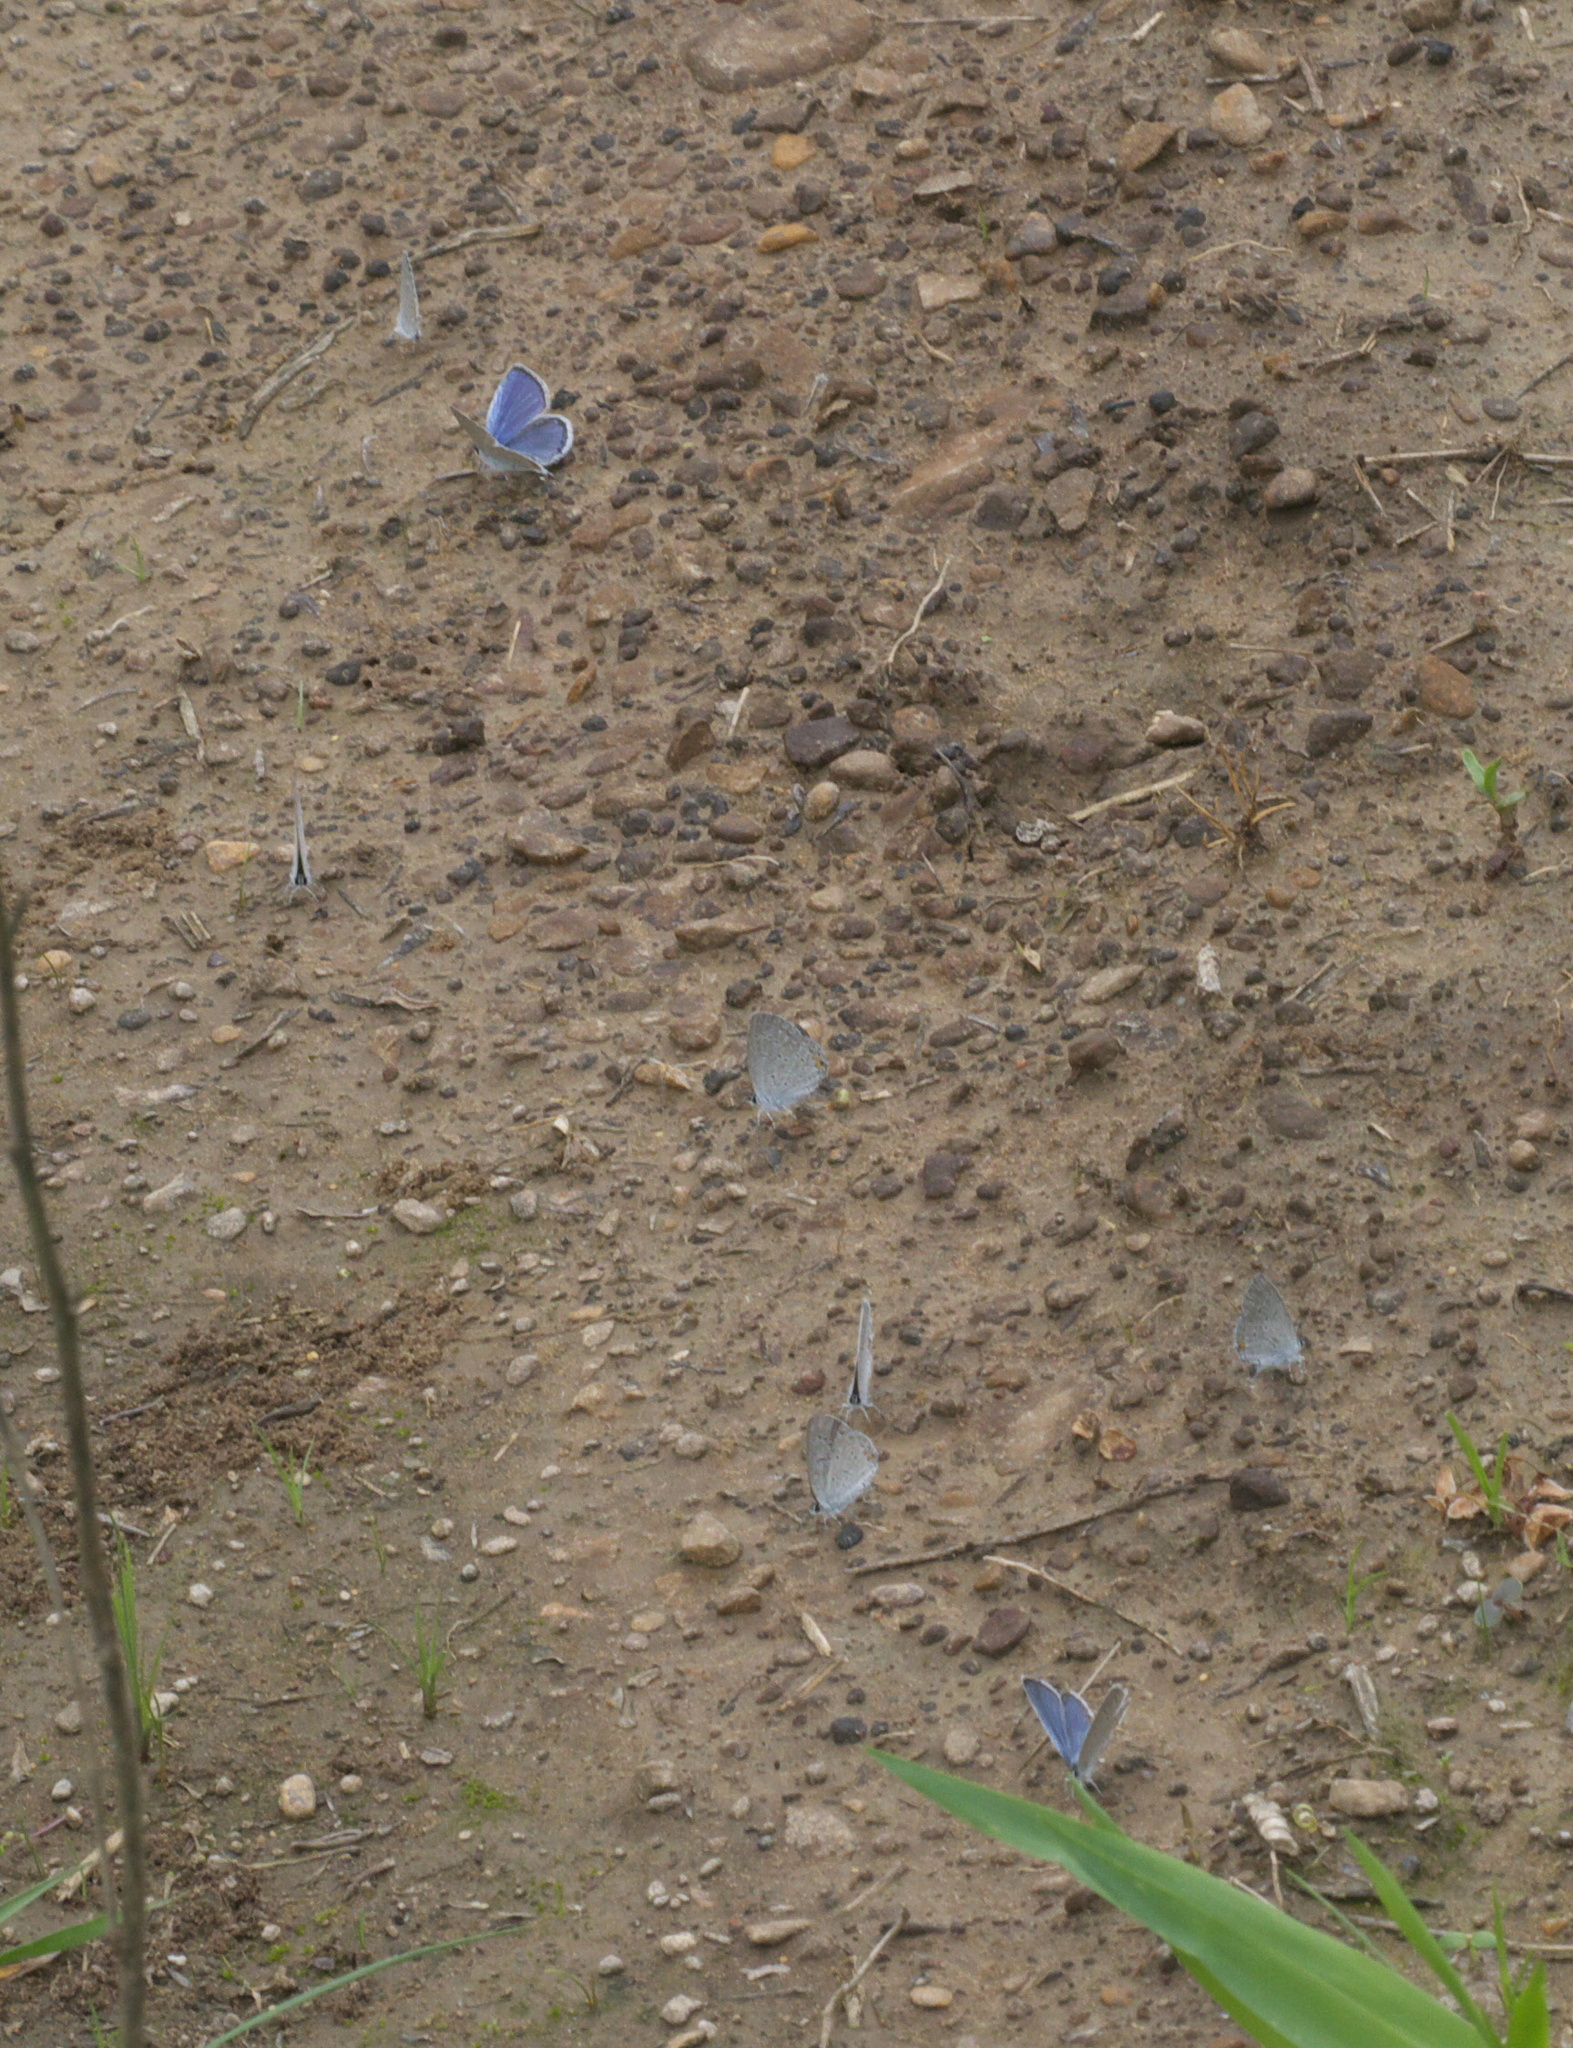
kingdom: Animalia
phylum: Arthropoda
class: Insecta
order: Lepidoptera
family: Lycaenidae
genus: Elkalyce
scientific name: Elkalyce comyntas
